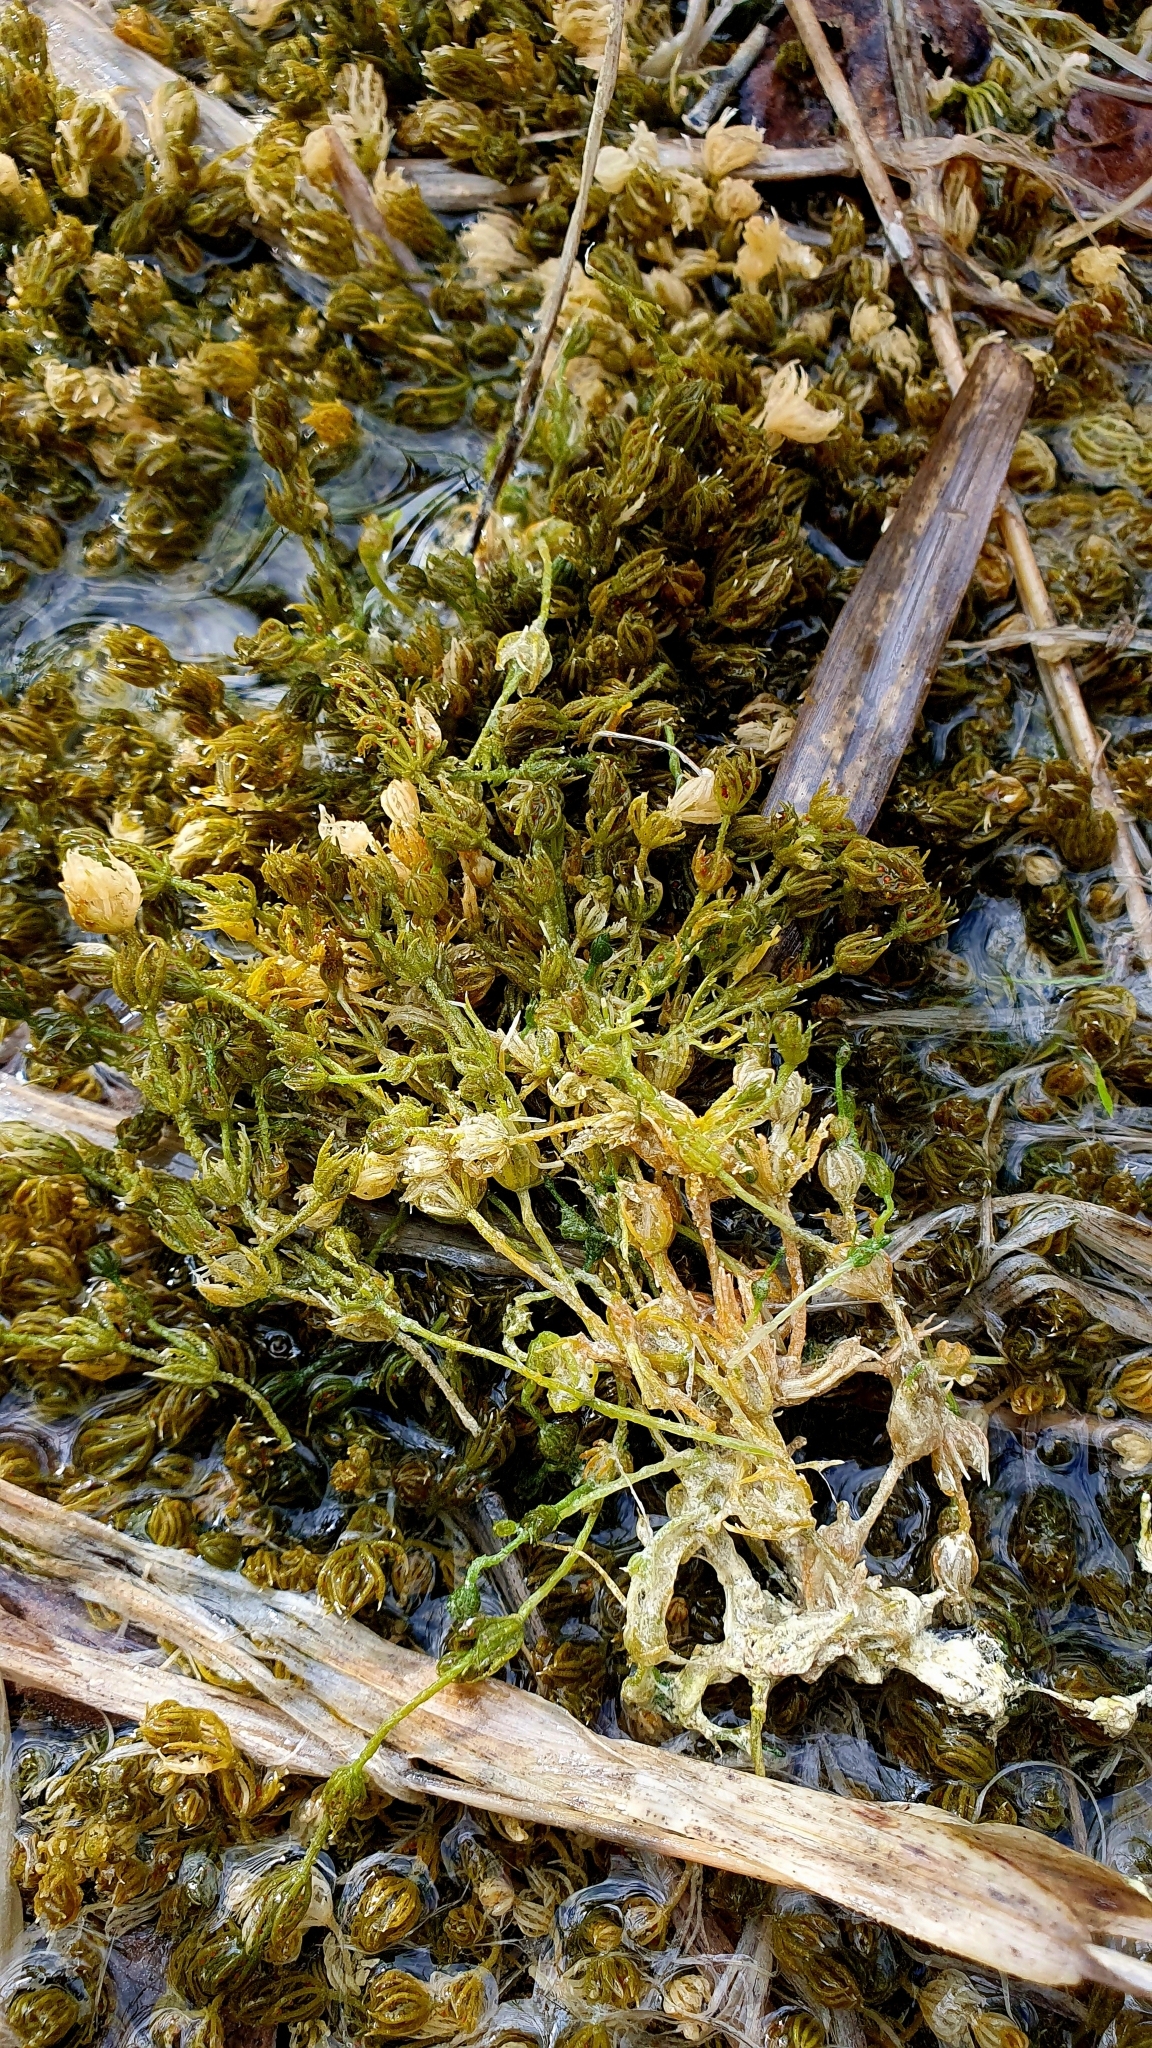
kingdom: Plantae
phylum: Charophyta
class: Charophyceae
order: Charales
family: Characeae
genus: Chara
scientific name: Chara vulgaris
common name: Common stonewort
